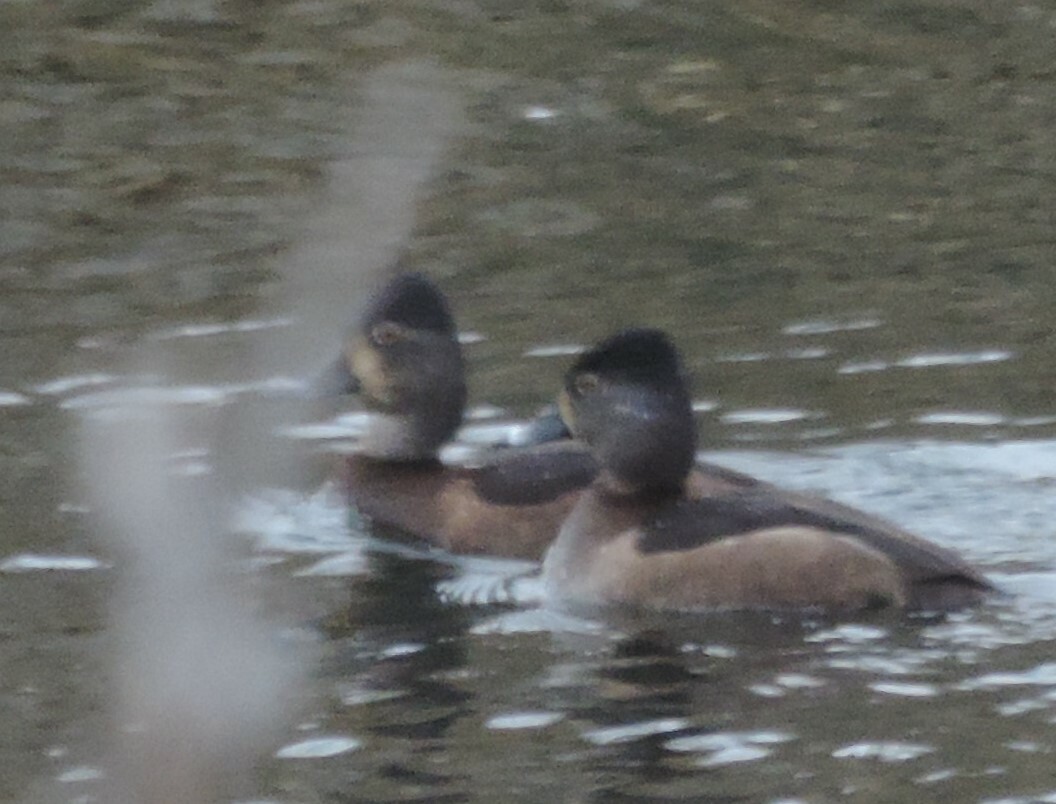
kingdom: Animalia
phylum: Chordata
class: Aves
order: Anseriformes
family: Anatidae
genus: Aythya
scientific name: Aythya collaris
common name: Ring-necked duck
